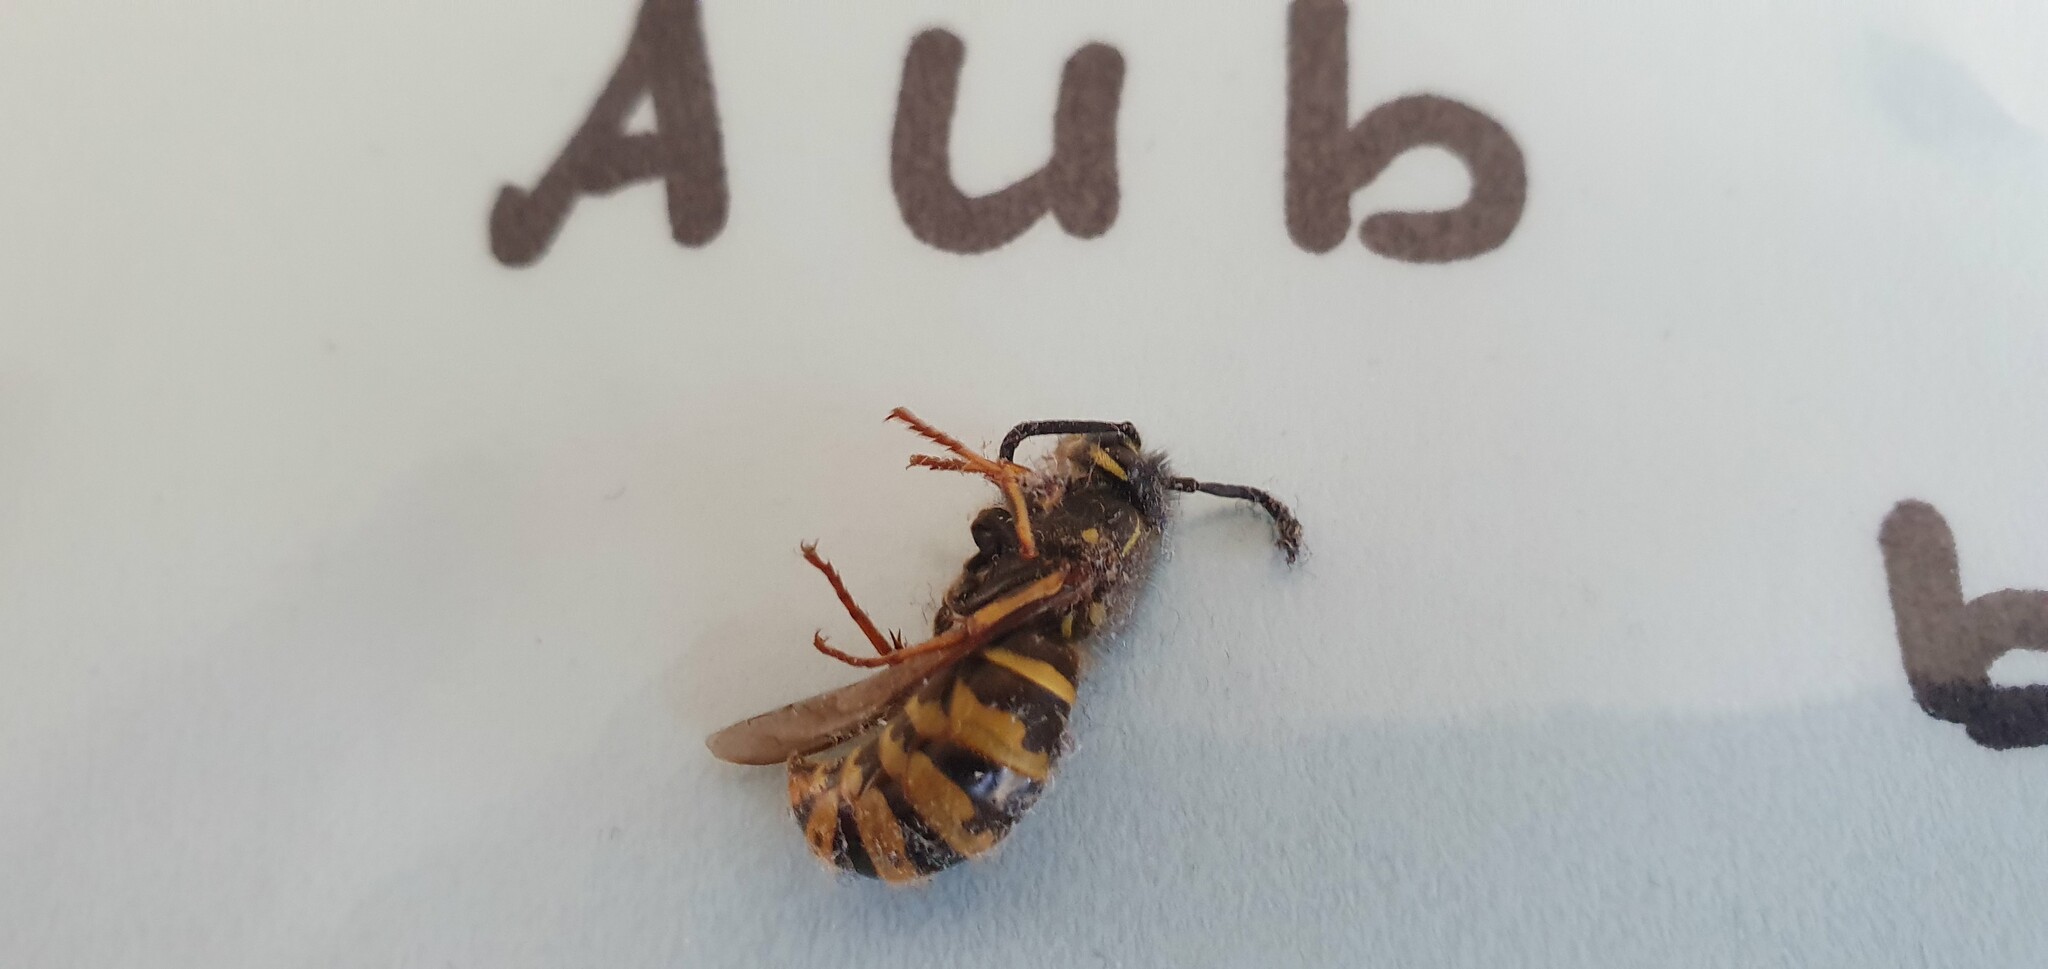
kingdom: Animalia
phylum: Arthropoda
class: Insecta
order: Hymenoptera
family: Vespidae
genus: Vespula
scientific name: Vespula vulgaris
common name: Common wasp
